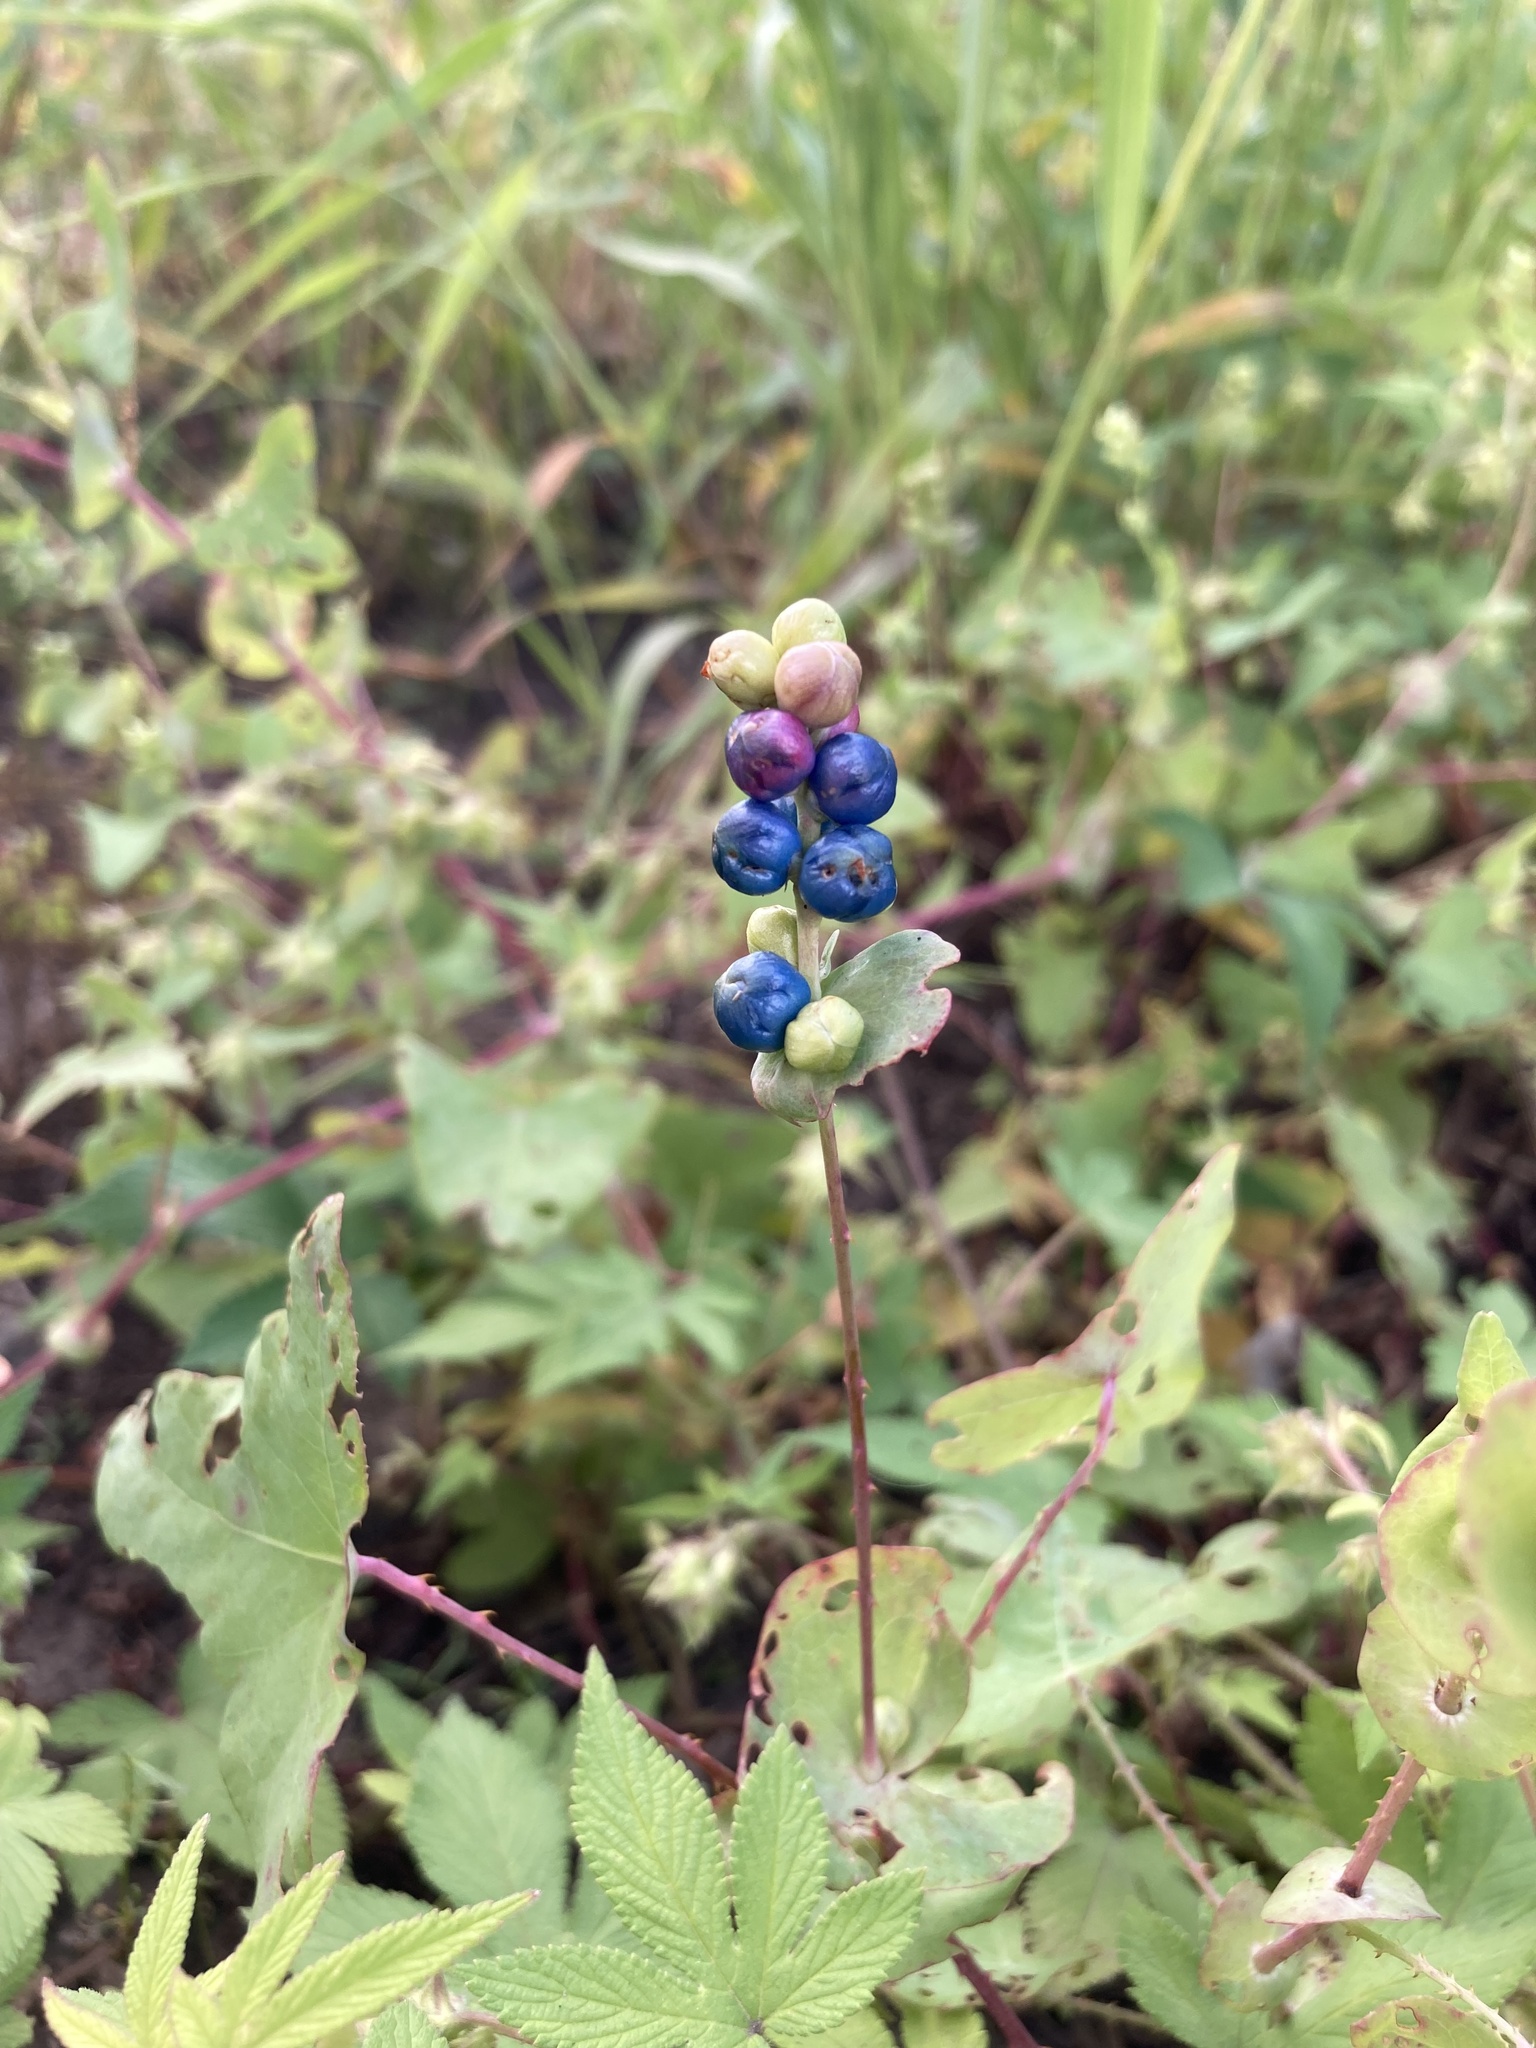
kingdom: Plantae
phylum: Tracheophyta
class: Magnoliopsida
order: Caryophyllales
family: Polygonaceae
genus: Persicaria
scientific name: Persicaria perfoliata
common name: Asiatic tearthumb
